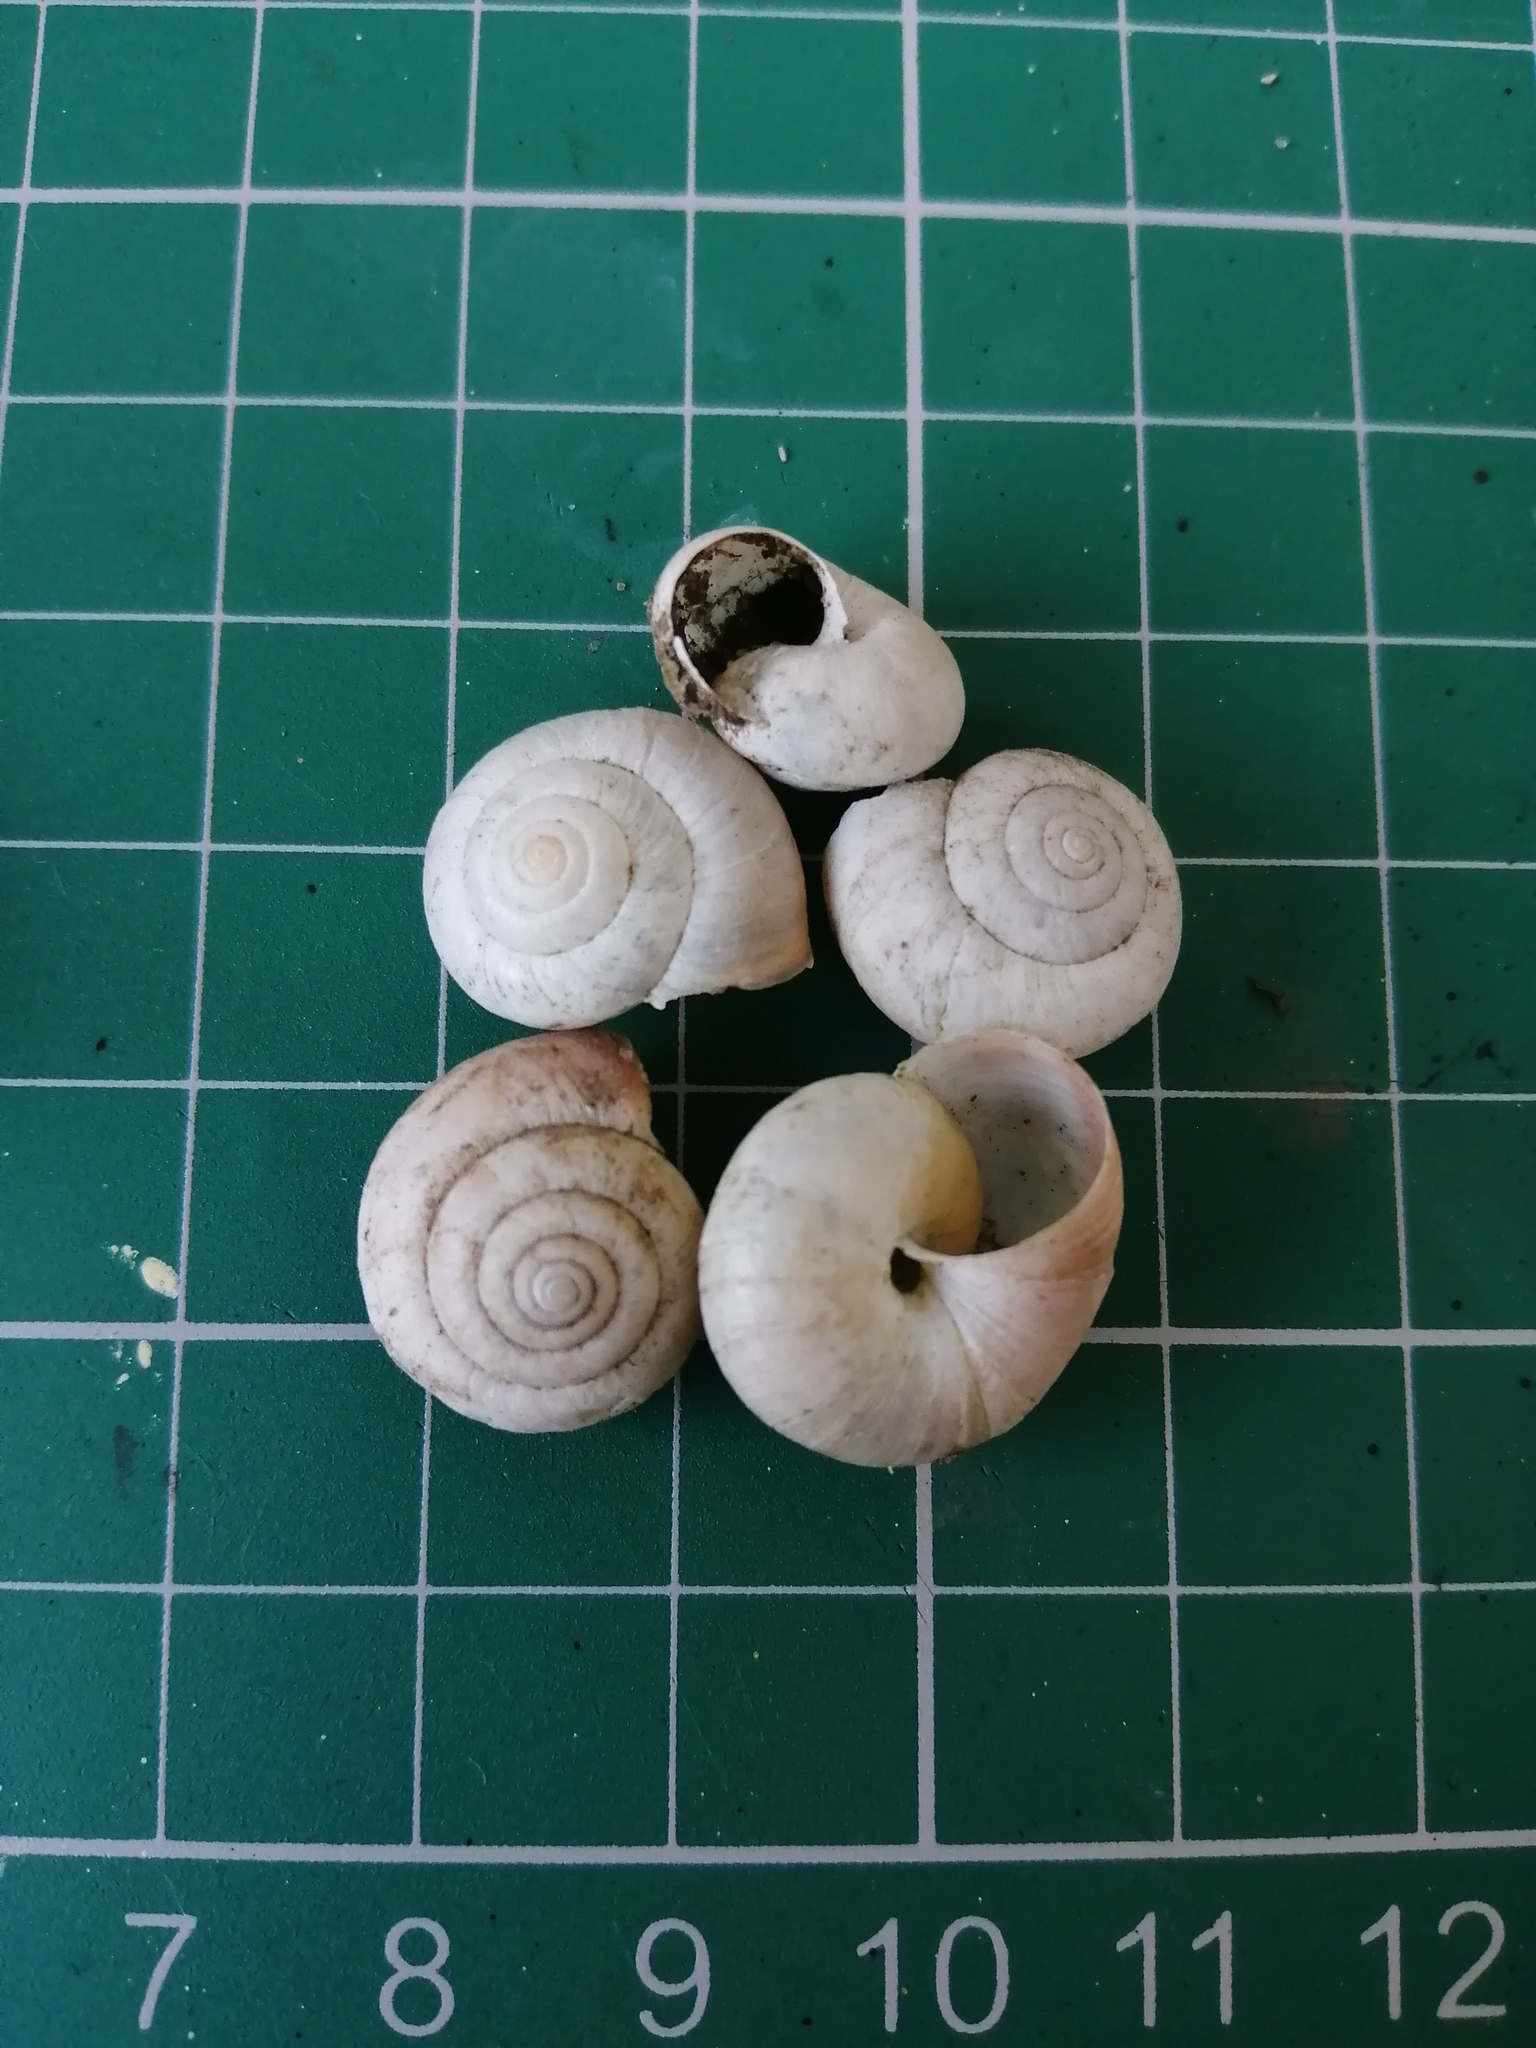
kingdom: Animalia
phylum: Mollusca
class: Gastropoda
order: Stylommatophora
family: Hygromiidae
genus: Monacha
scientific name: Monacha cantiana
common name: Kentish snail
